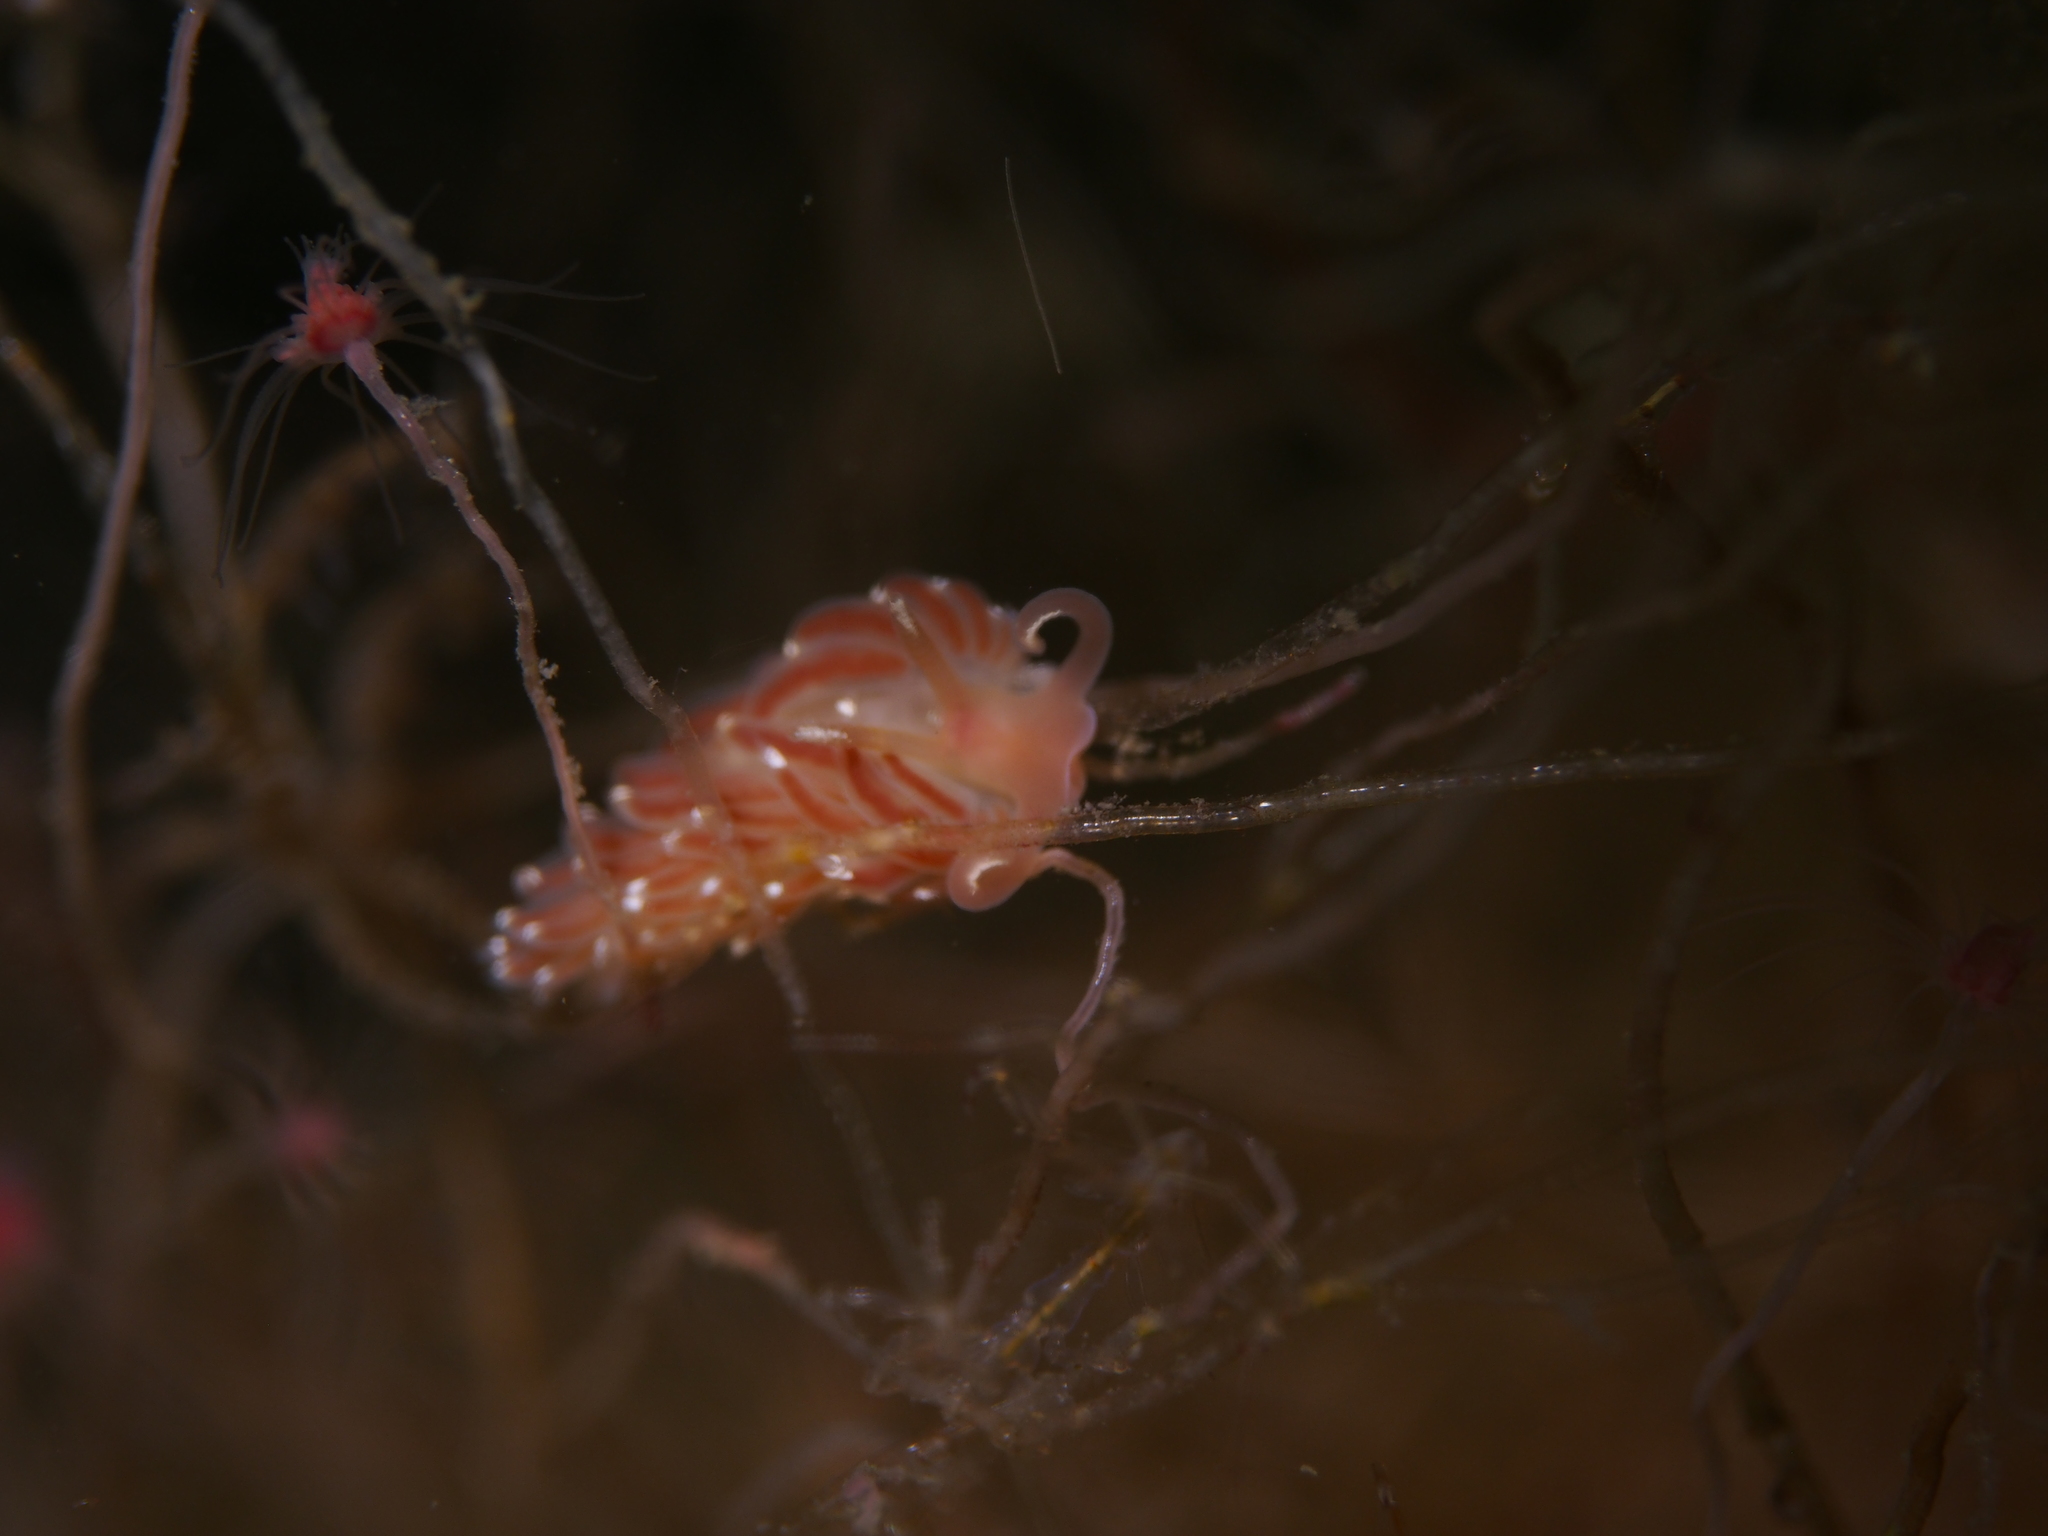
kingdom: Animalia
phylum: Mollusca
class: Gastropoda
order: Nudibranchia
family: Facelinidae
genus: Facelina
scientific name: Facelina bostoniensis
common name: Boston facelina
